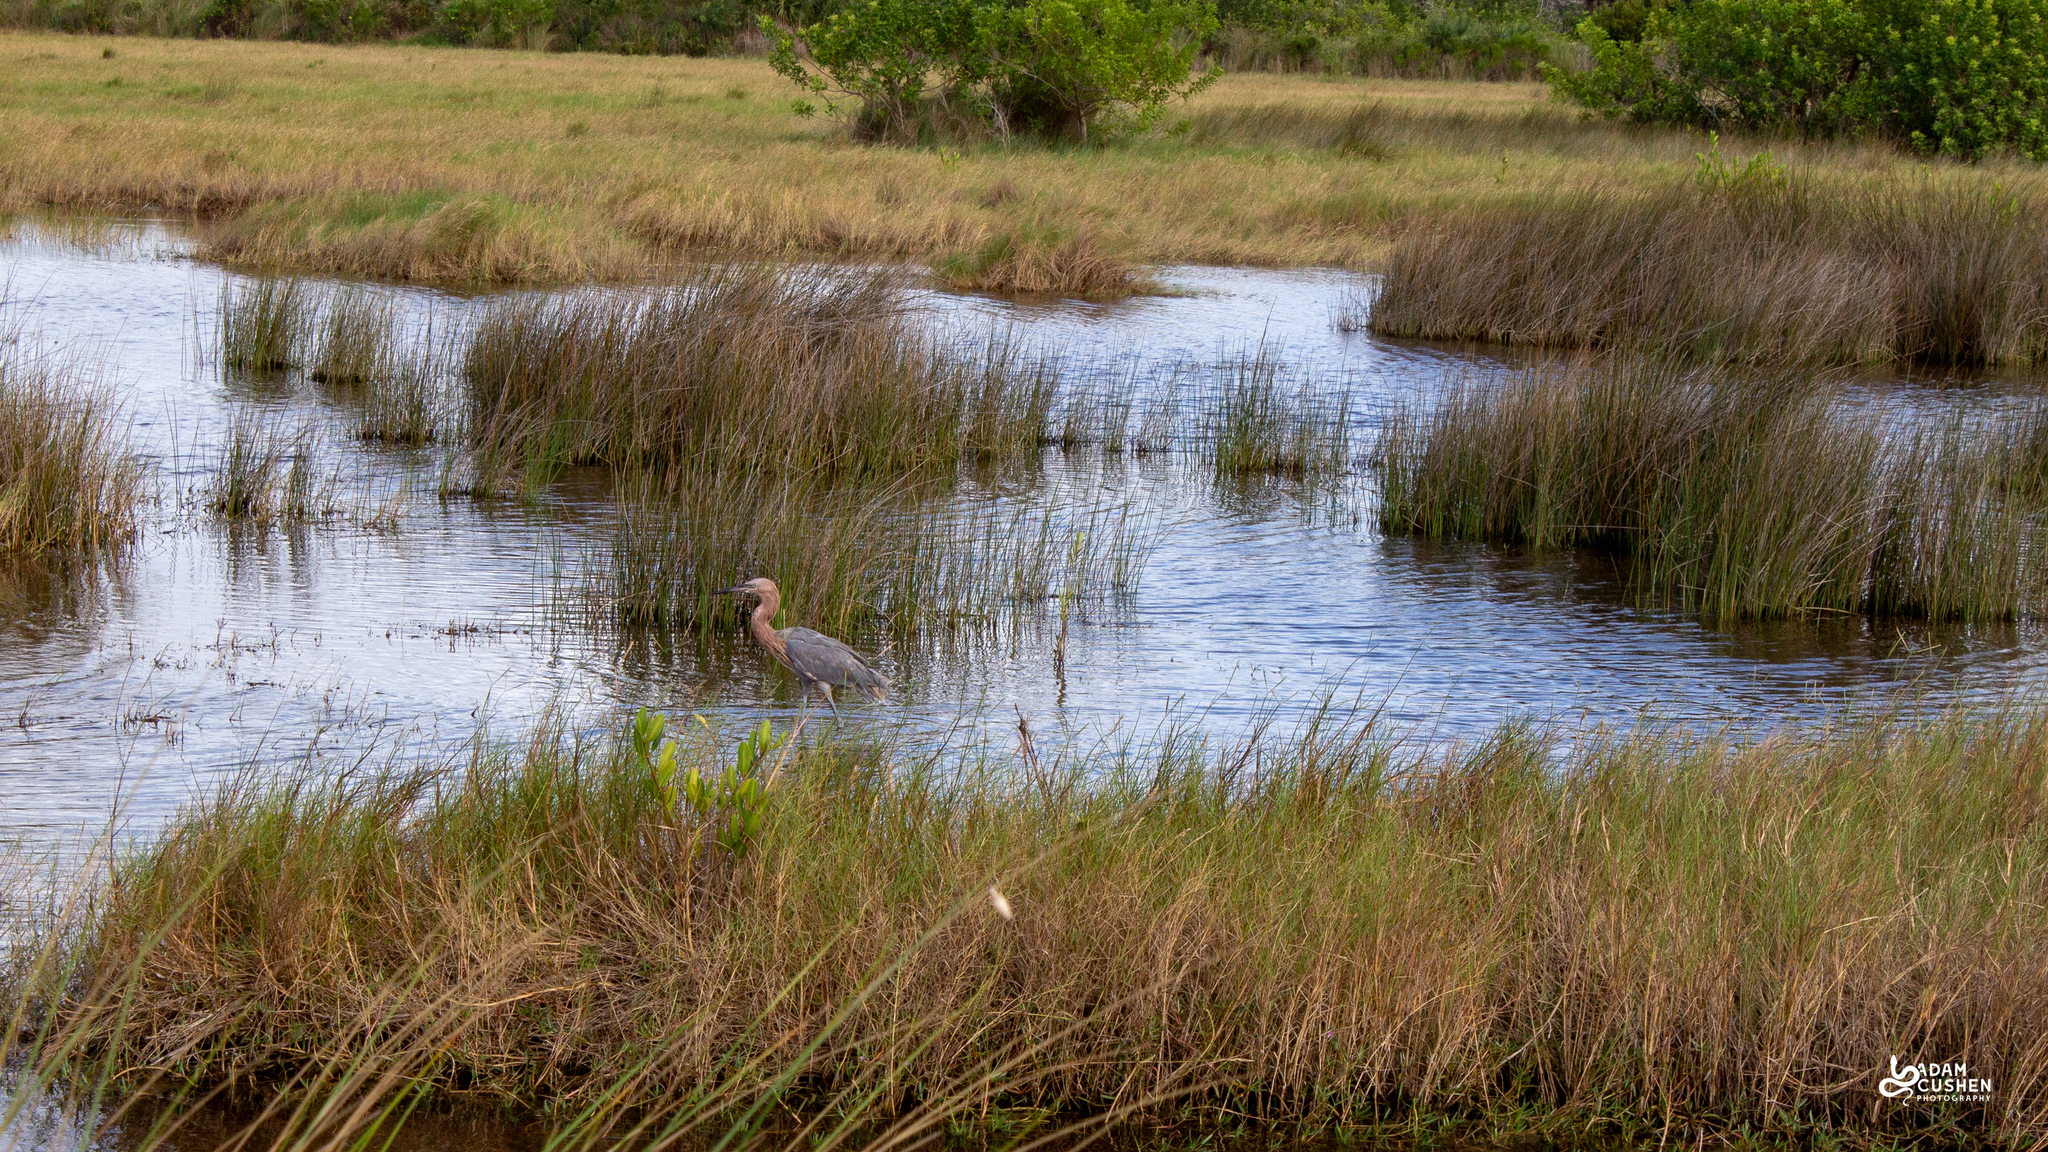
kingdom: Animalia
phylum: Chordata
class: Aves
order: Pelecaniformes
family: Ardeidae
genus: Egretta
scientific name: Egretta rufescens
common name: Reddish egret
